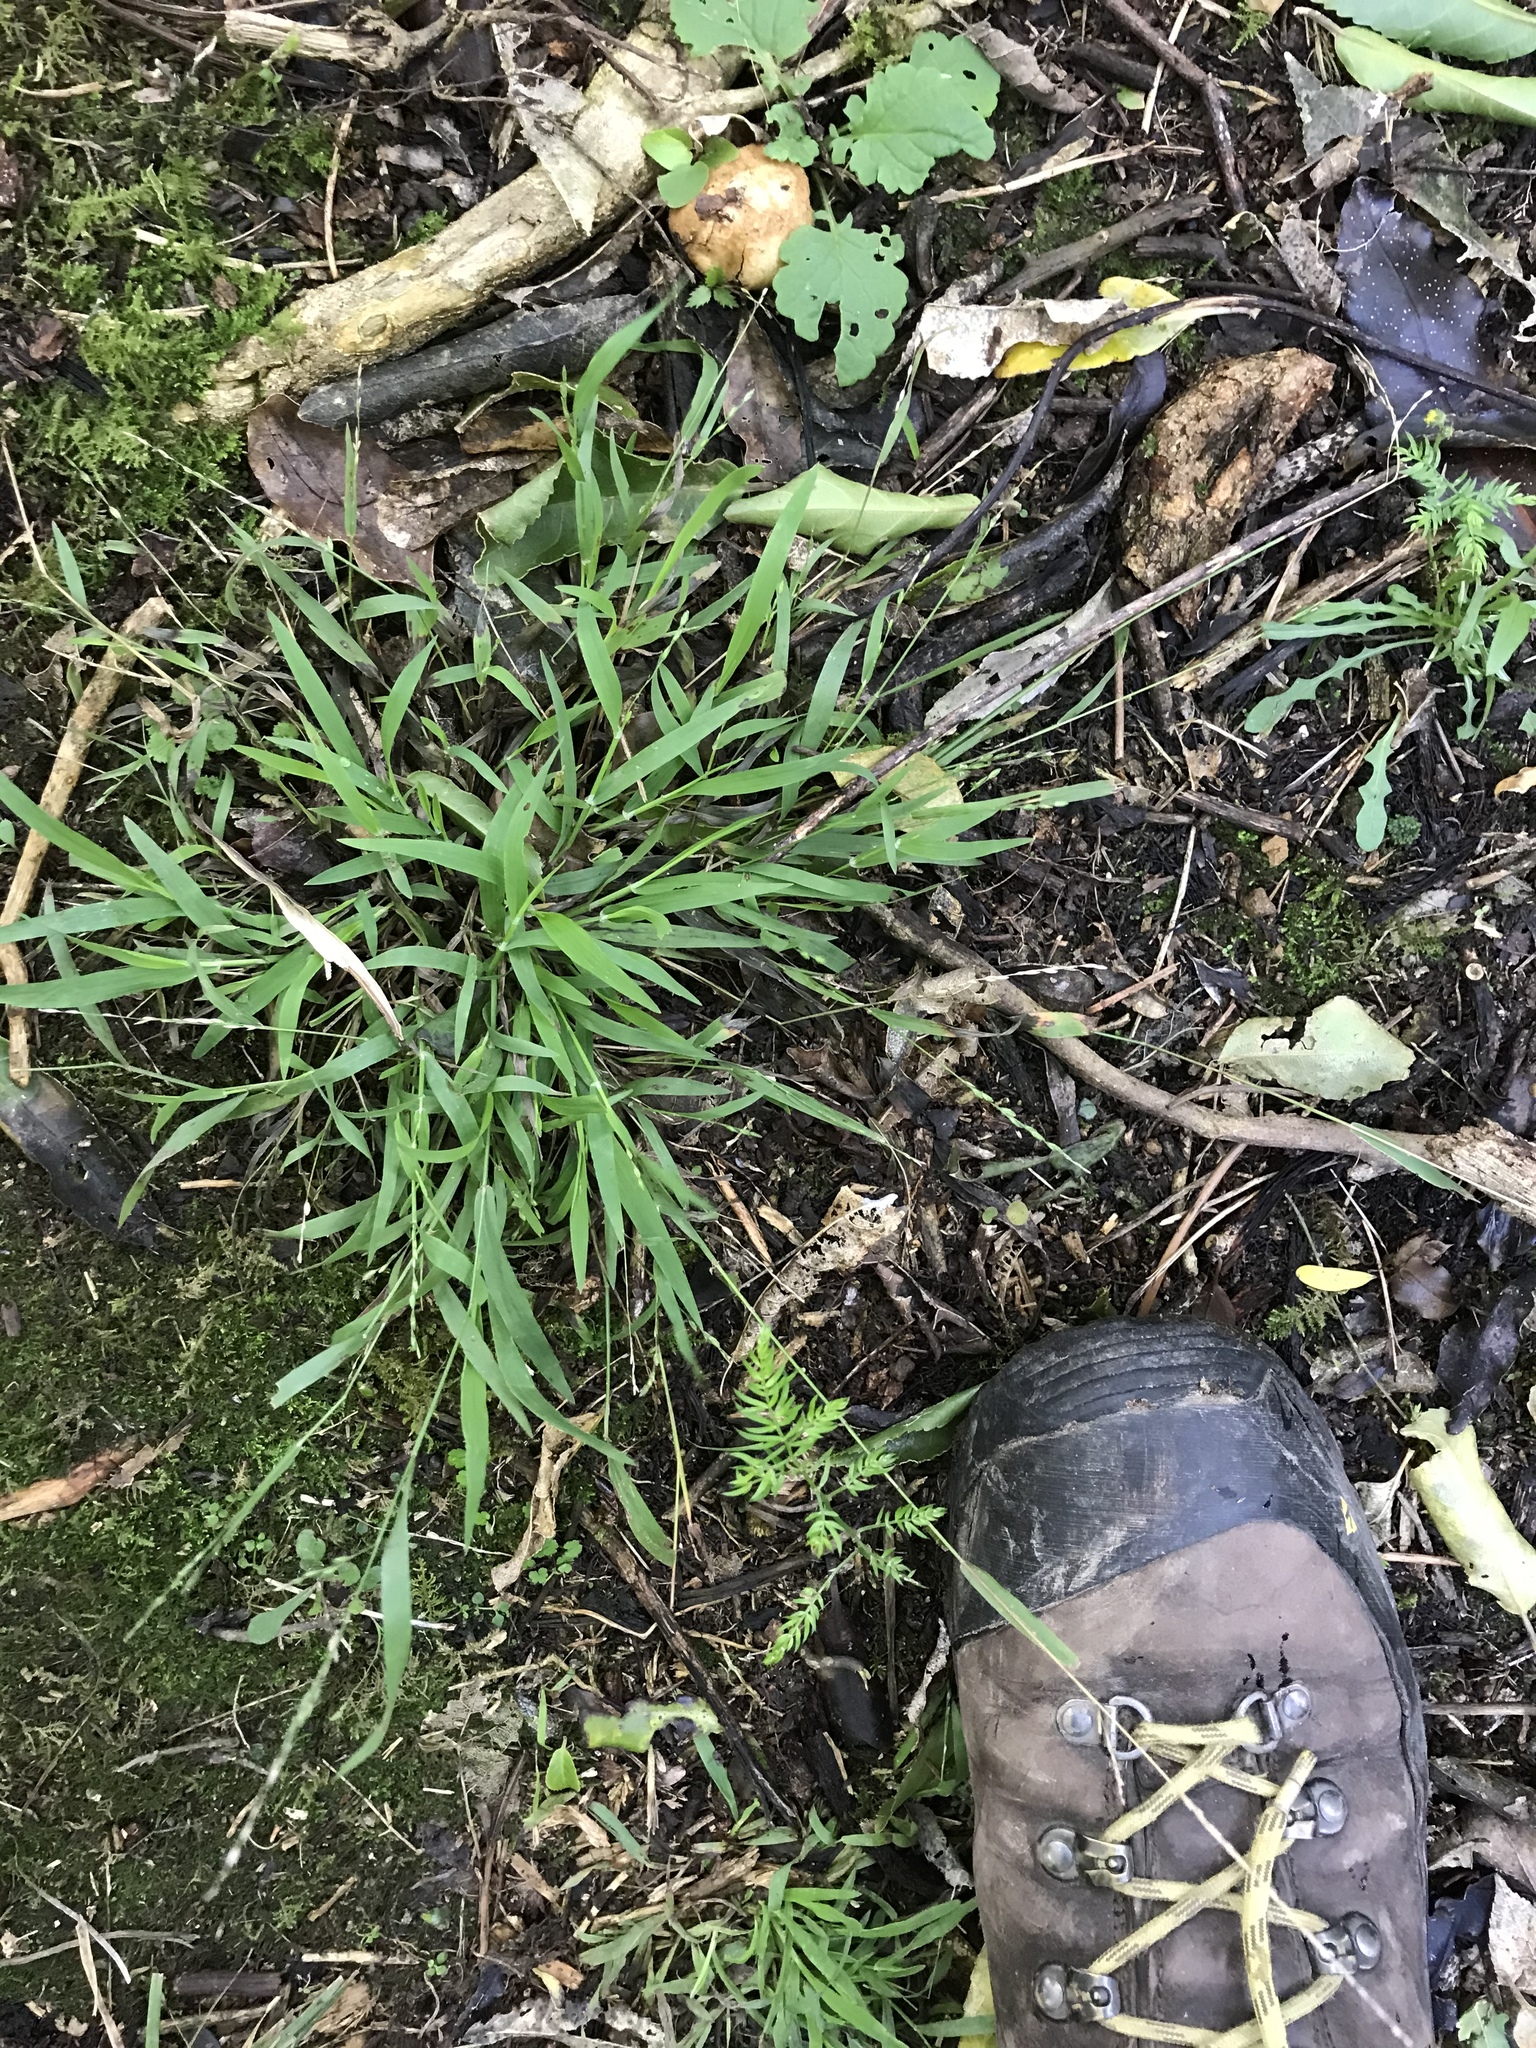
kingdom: Plantae
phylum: Tracheophyta
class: Liliopsida
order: Poales
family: Poaceae
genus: Ehrharta
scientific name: Ehrharta erecta
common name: Panic veldtgrass
